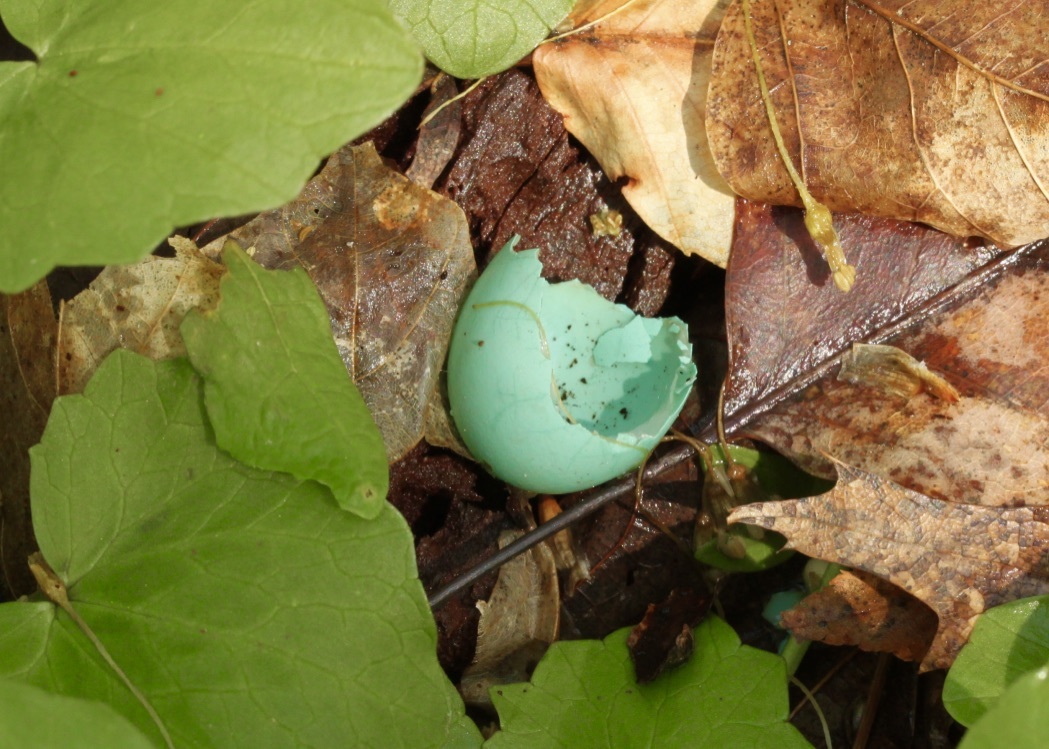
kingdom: Animalia
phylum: Chordata
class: Aves
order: Passeriformes
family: Turdidae
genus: Turdus
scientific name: Turdus migratorius
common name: American robin
